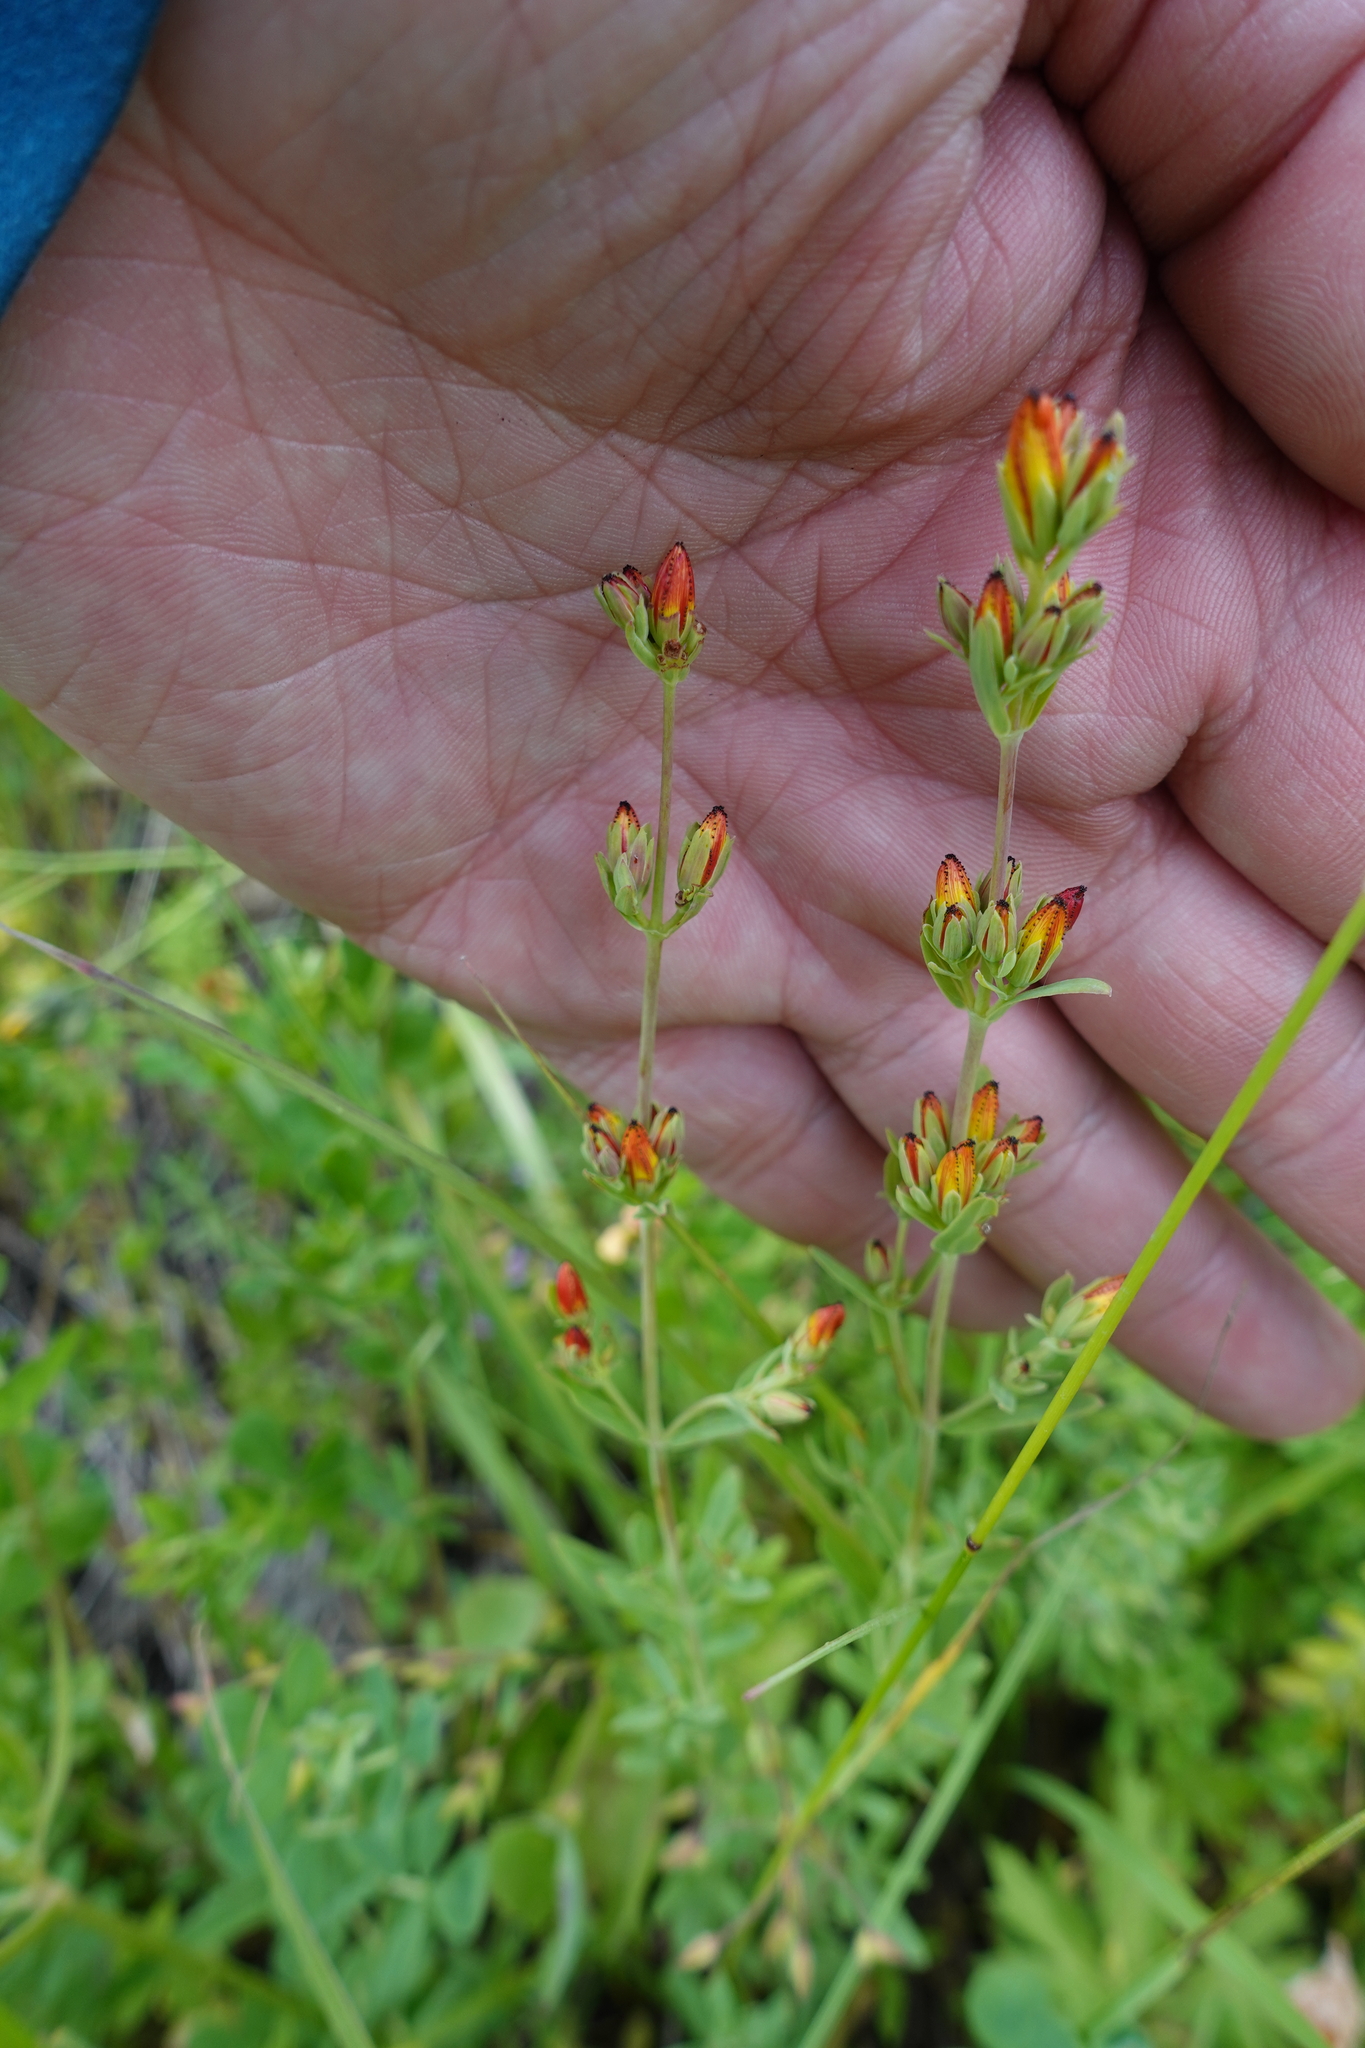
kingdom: Plantae
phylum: Tracheophyta
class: Magnoliopsida
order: Malpighiales
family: Hypericaceae
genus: Hypericum
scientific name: Hypericum linarioides
